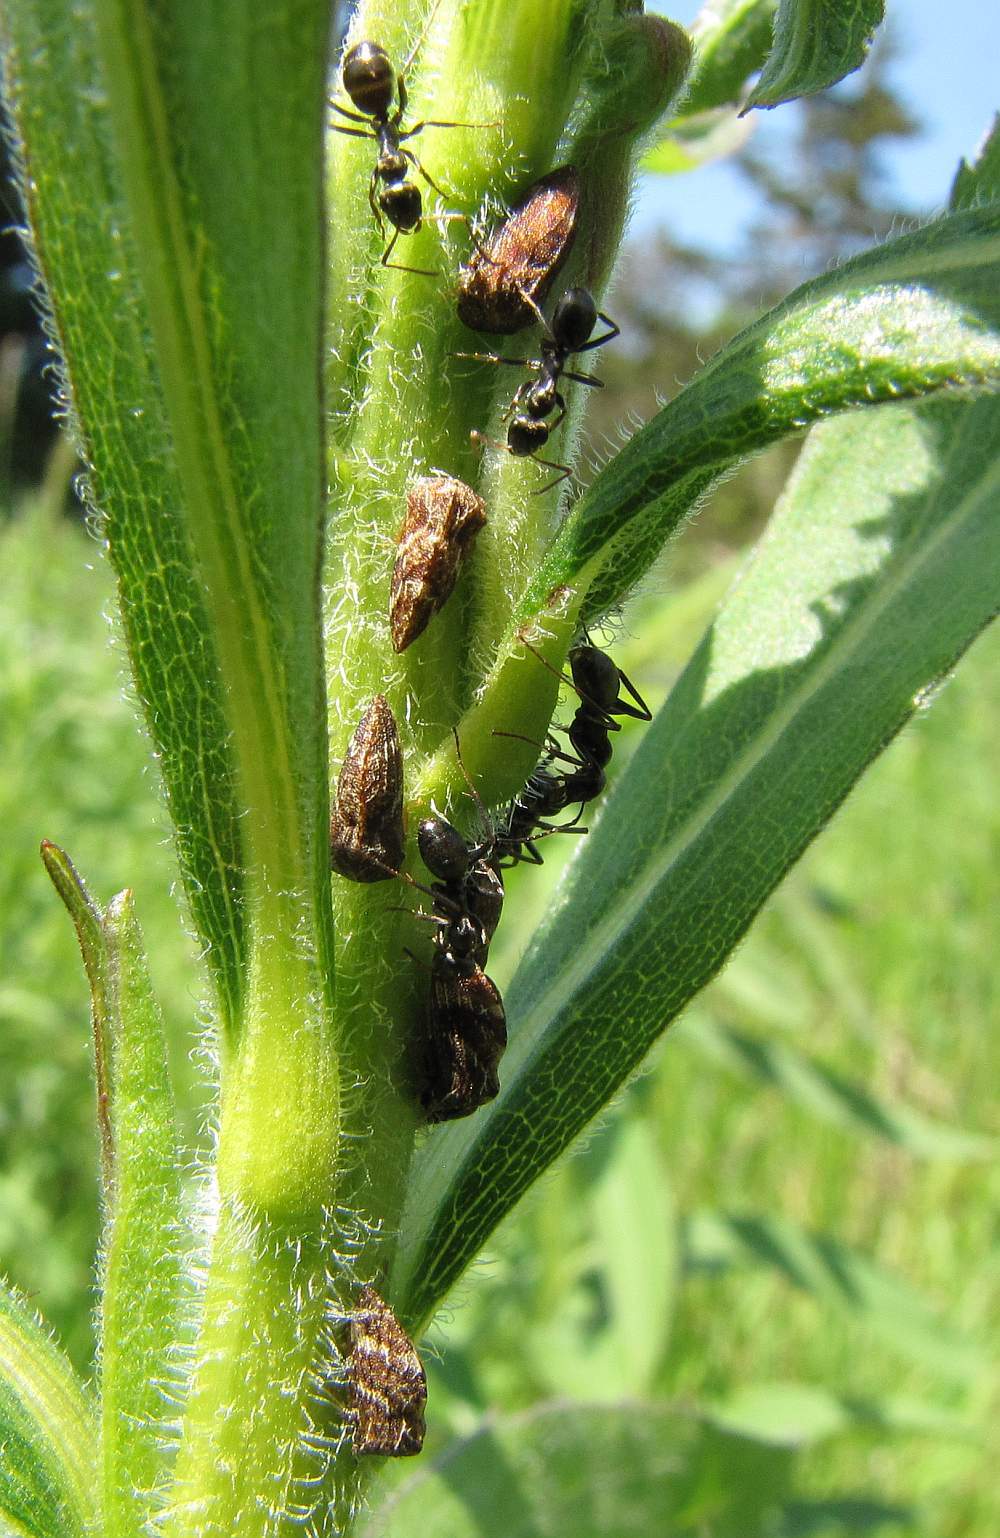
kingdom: Animalia
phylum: Arthropoda
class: Insecta
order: Hemiptera
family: Membracidae
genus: Publilia
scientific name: Publilia concava
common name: Aster treehopper
